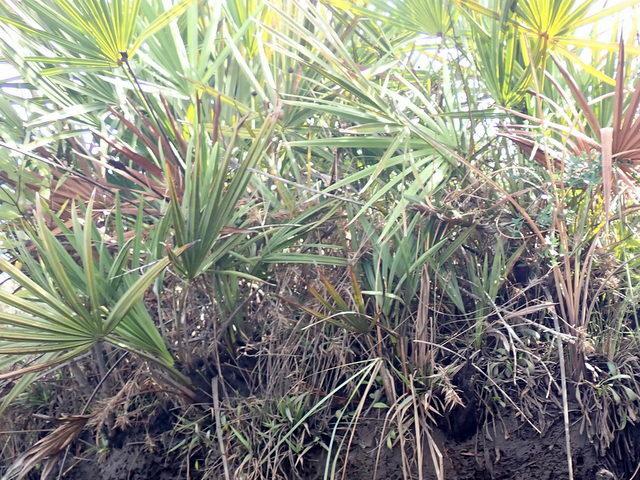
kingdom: Plantae
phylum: Tracheophyta
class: Liliopsida
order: Arecales
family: Arecaceae
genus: Serenoa
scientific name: Serenoa repens
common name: Saw-palmetto
